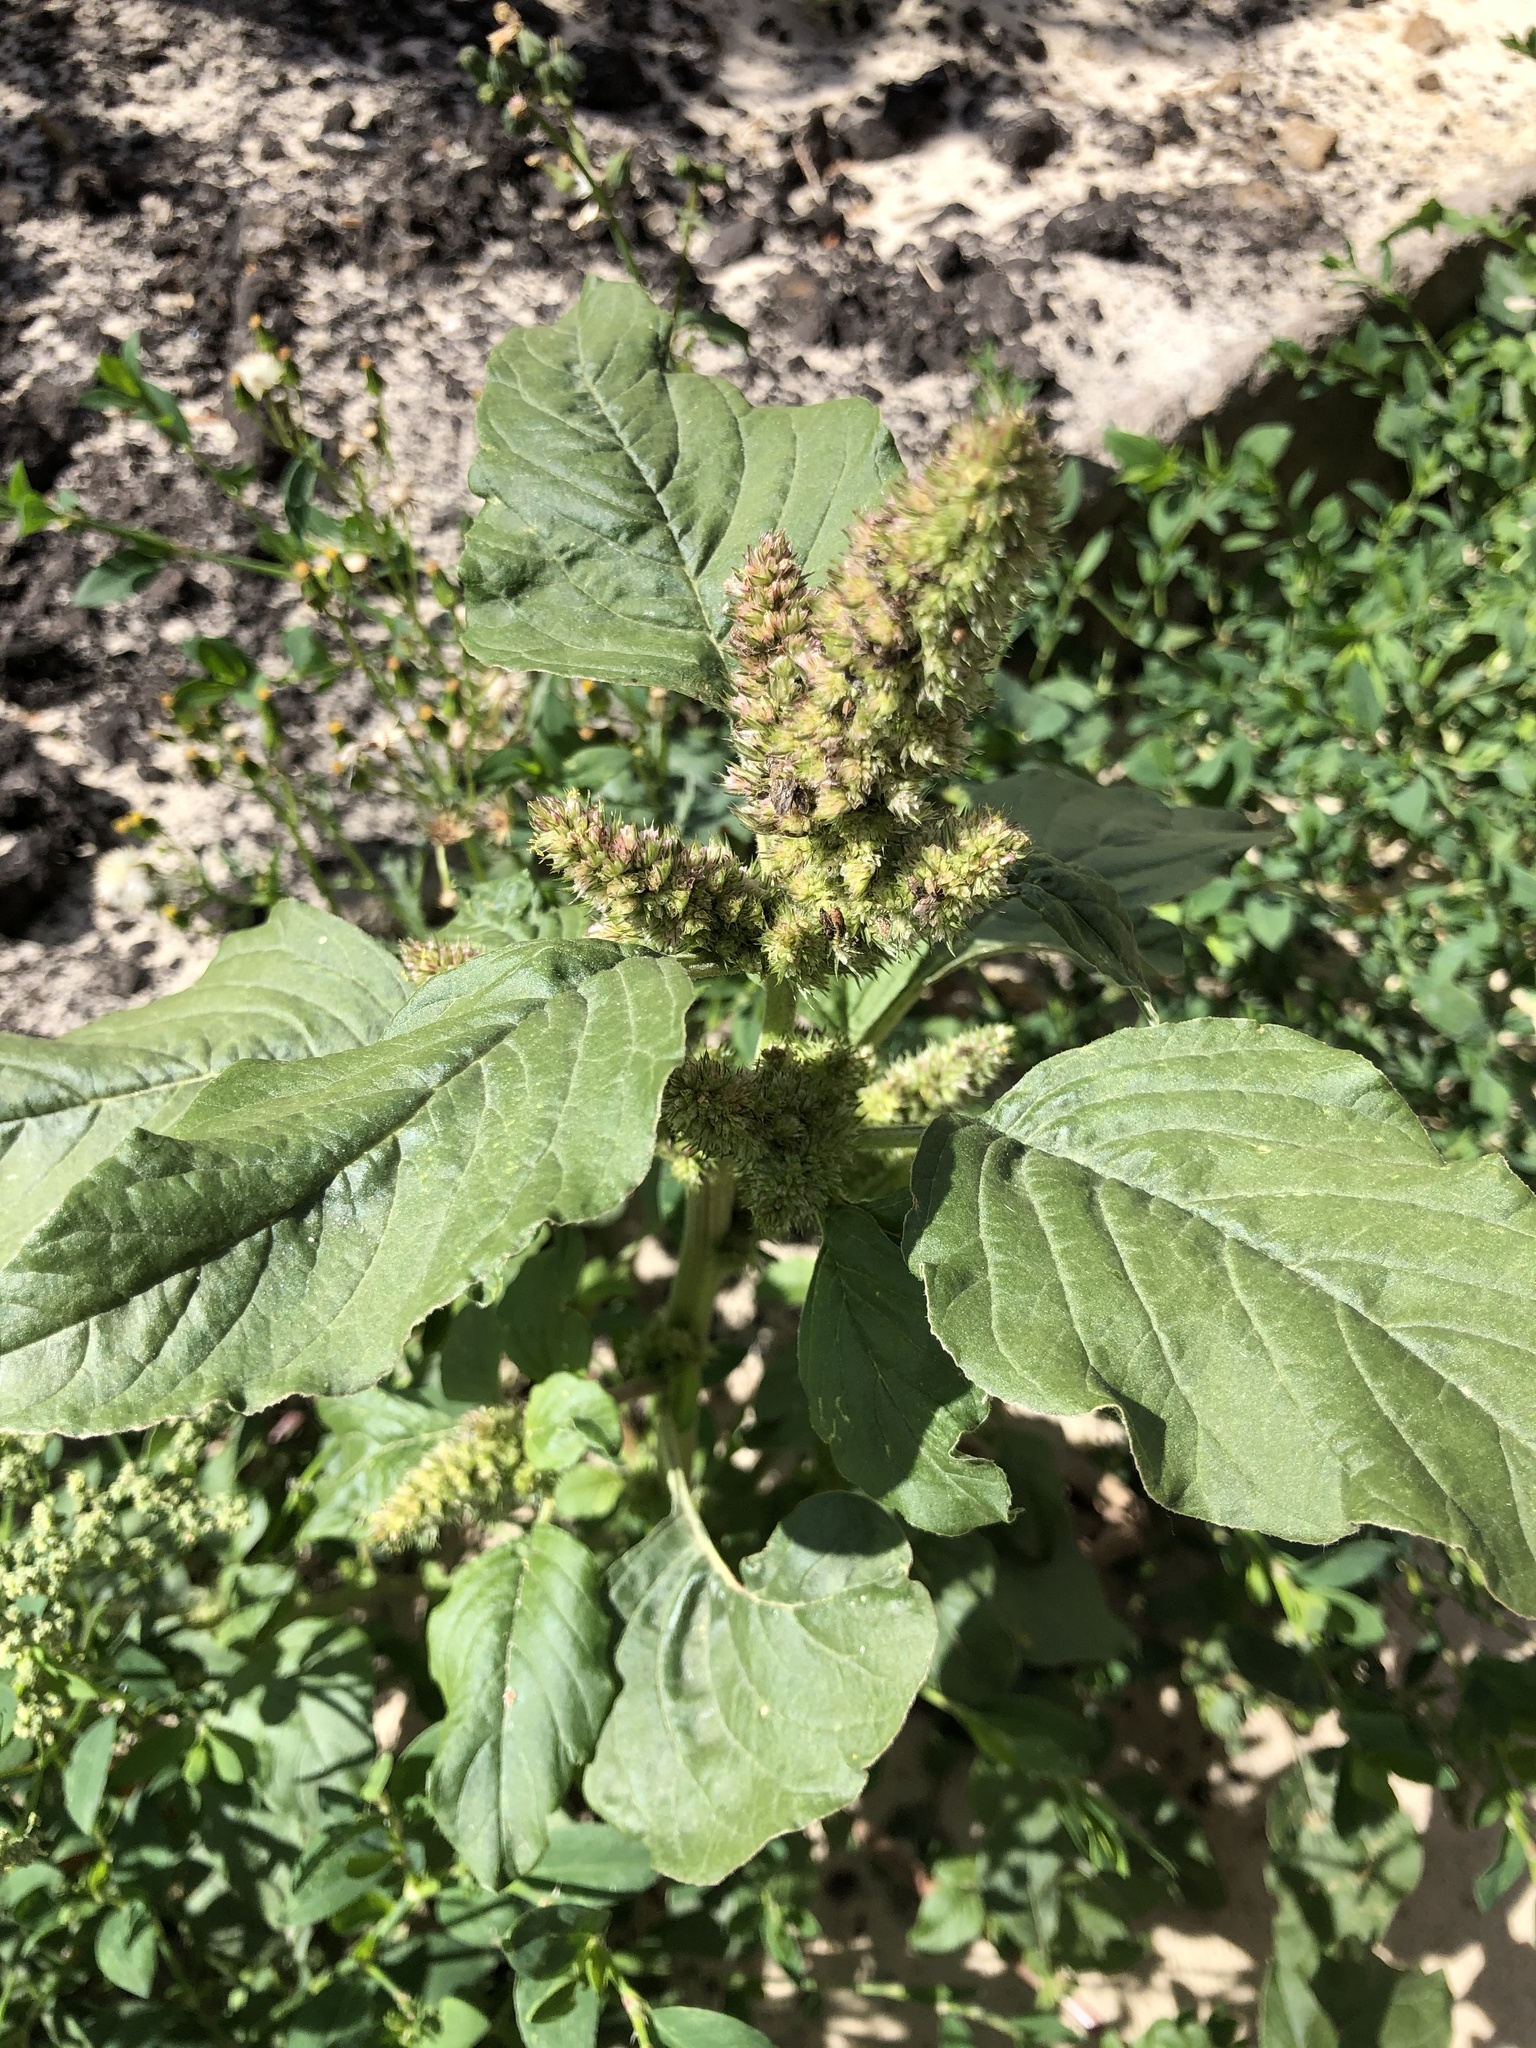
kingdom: Plantae
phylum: Tracheophyta
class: Magnoliopsida
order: Caryophyllales
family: Amaranthaceae
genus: Amaranthus
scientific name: Amaranthus retroflexus
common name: Redroot amaranth
